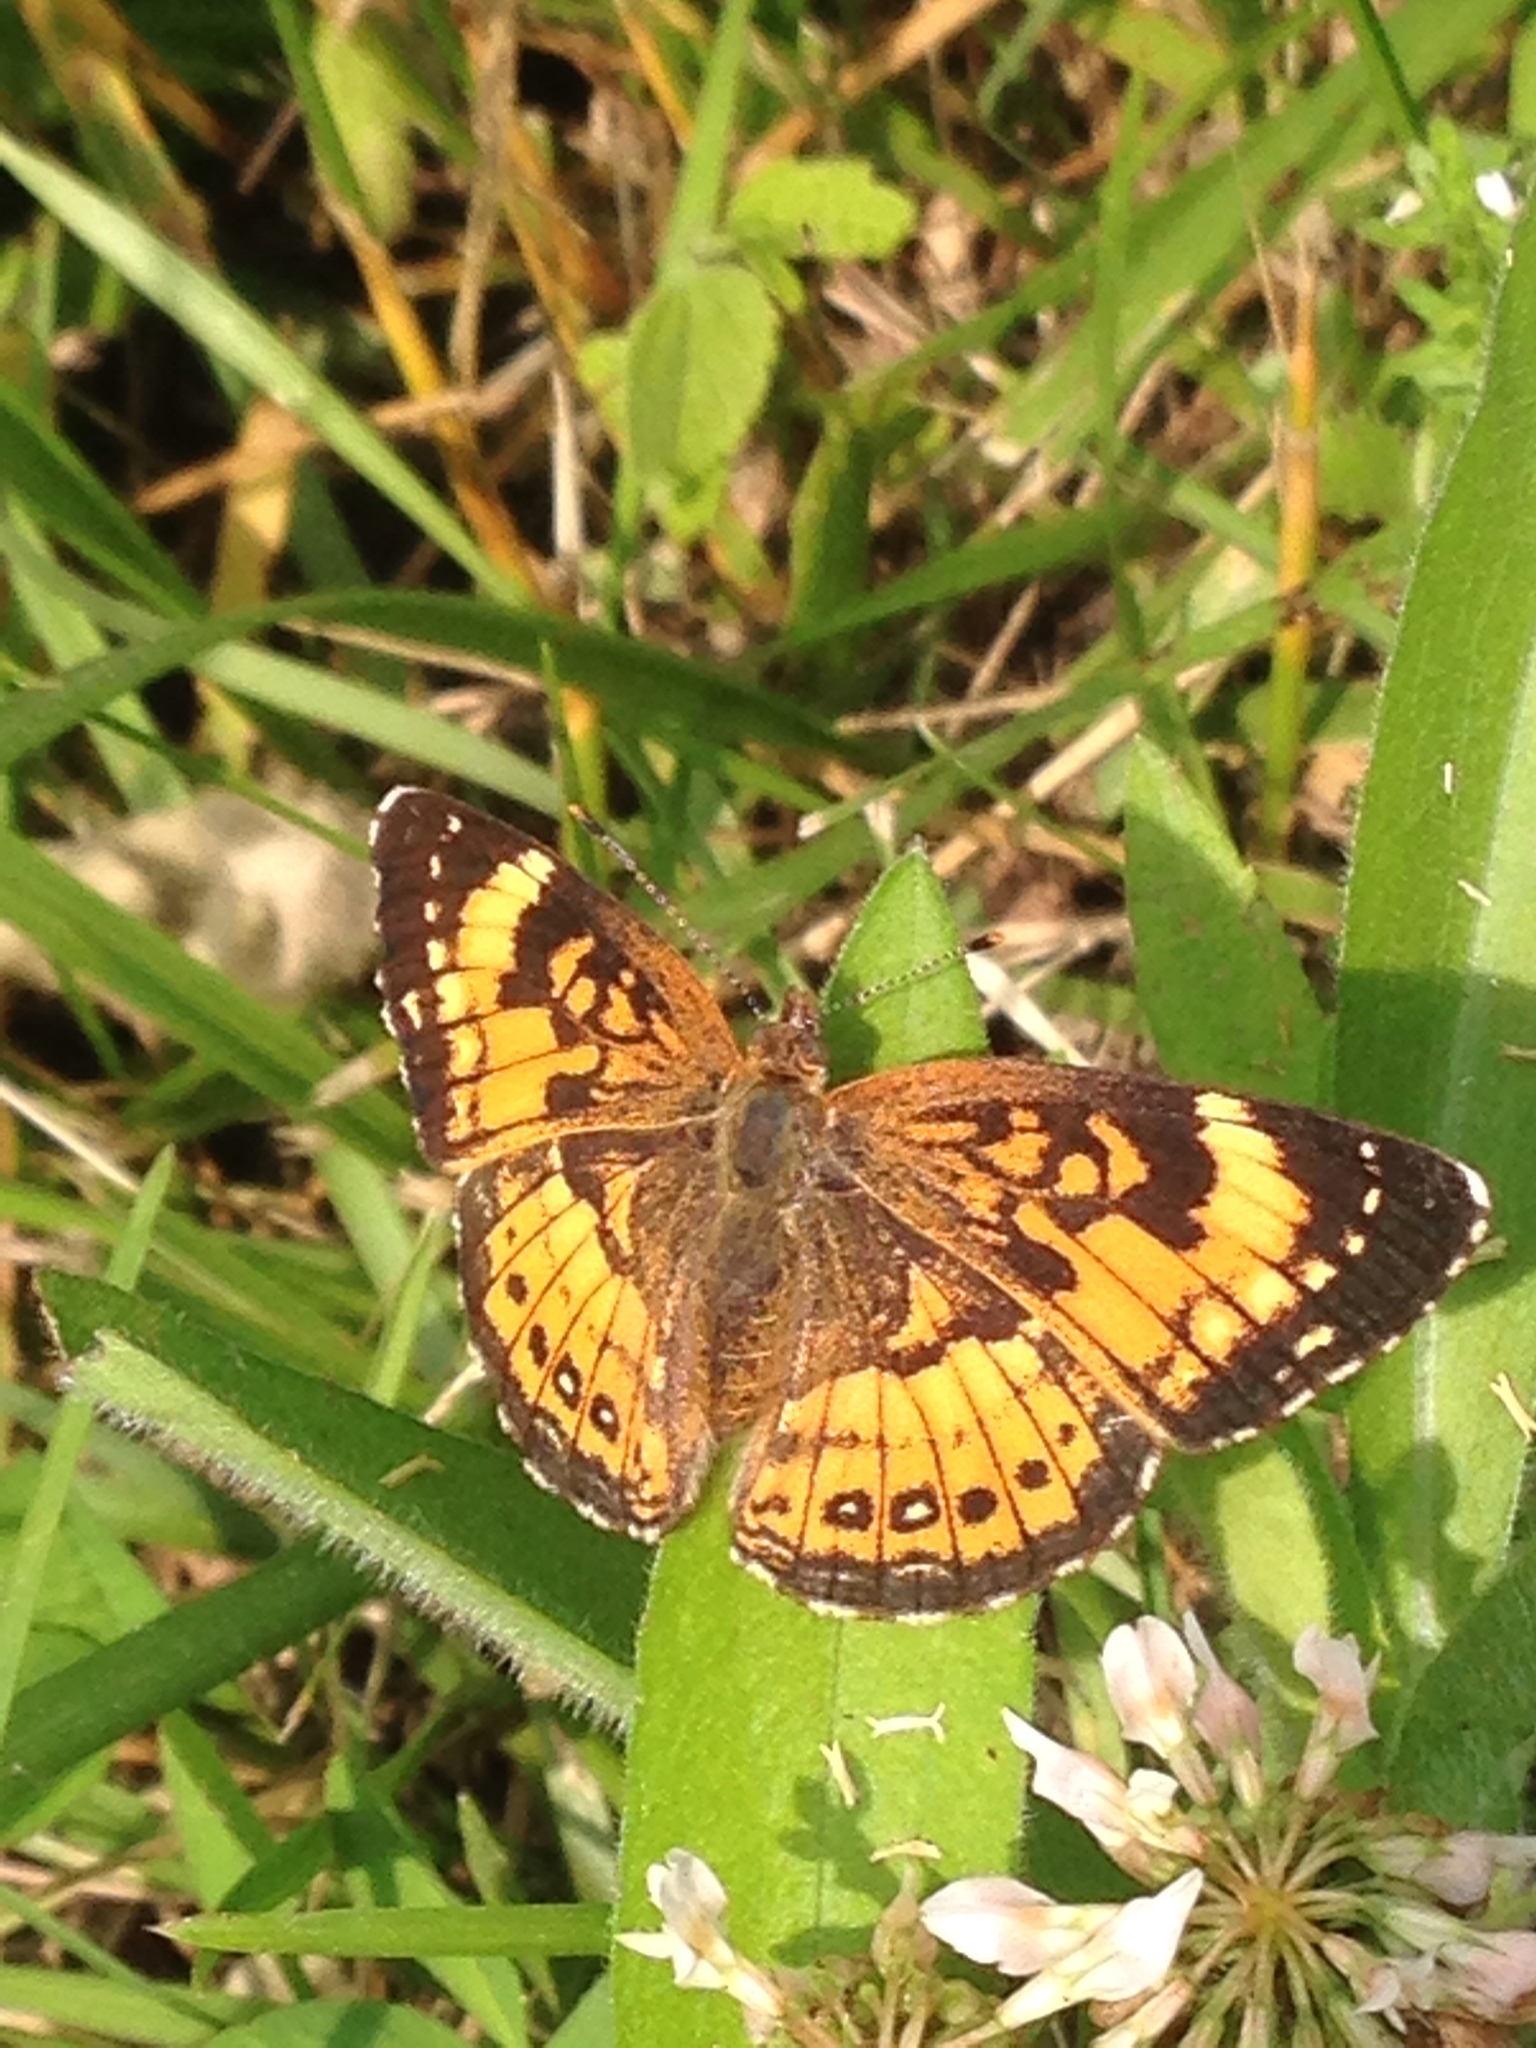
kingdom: Animalia
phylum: Arthropoda
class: Insecta
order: Lepidoptera
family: Nymphalidae
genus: Chlosyne
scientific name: Chlosyne nycteis
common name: Silvery checkerspot
